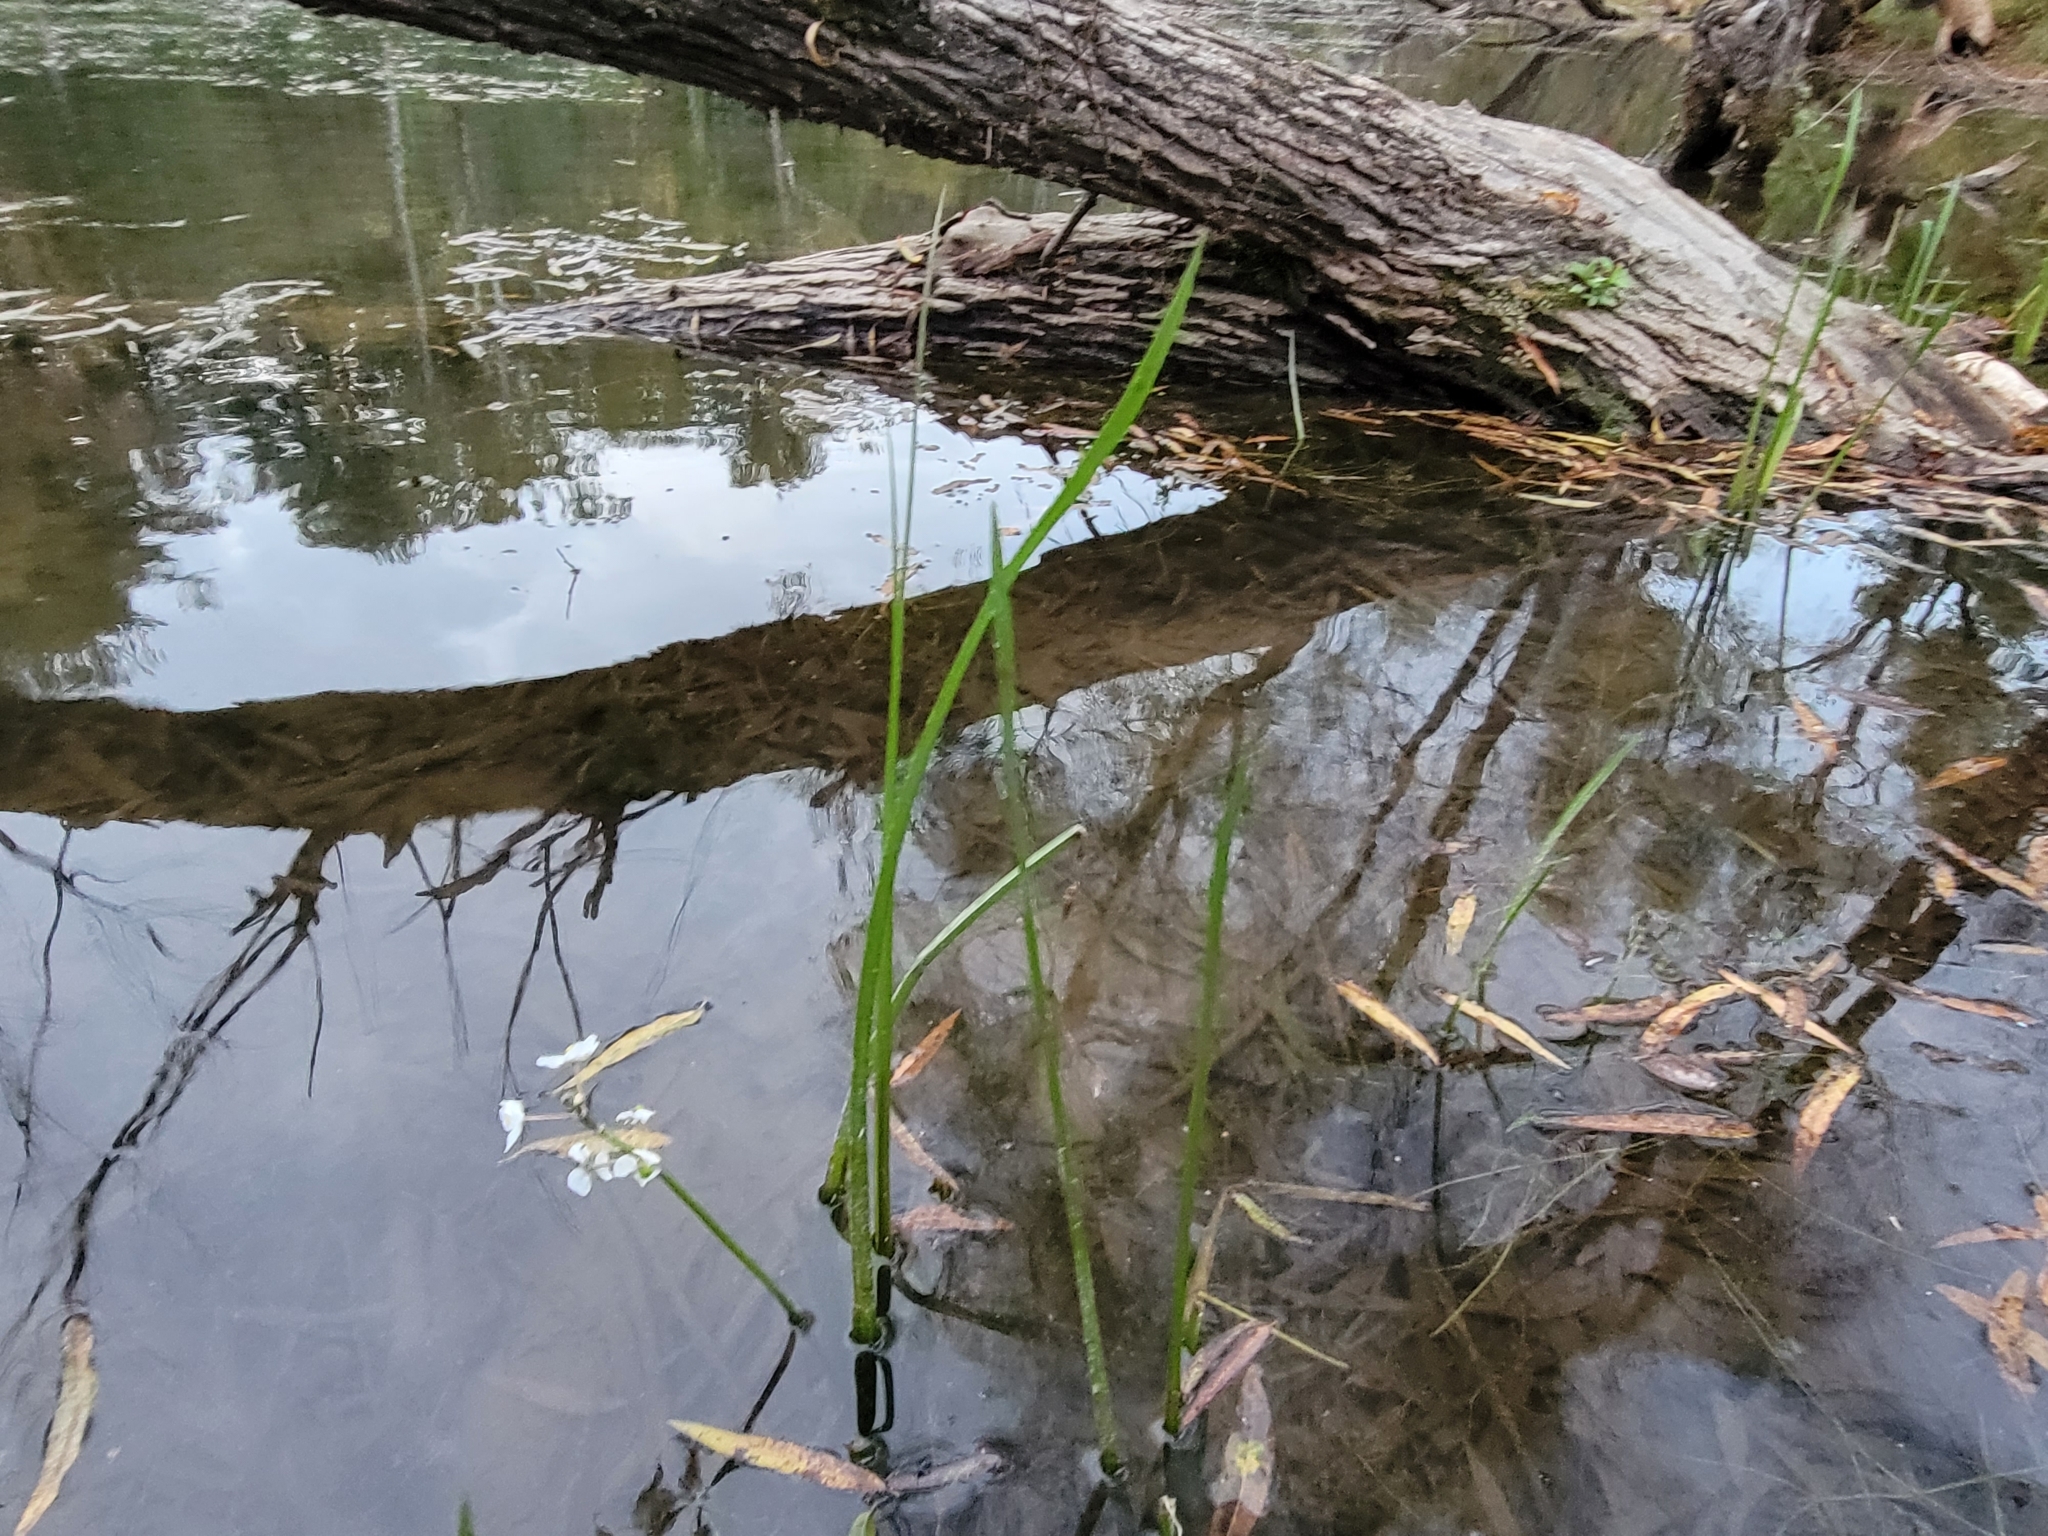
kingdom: Plantae
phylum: Tracheophyta
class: Liliopsida
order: Alismatales
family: Alismataceae
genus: Sagittaria
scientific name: Sagittaria platyphylla
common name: Broad-leaf arrowhead
